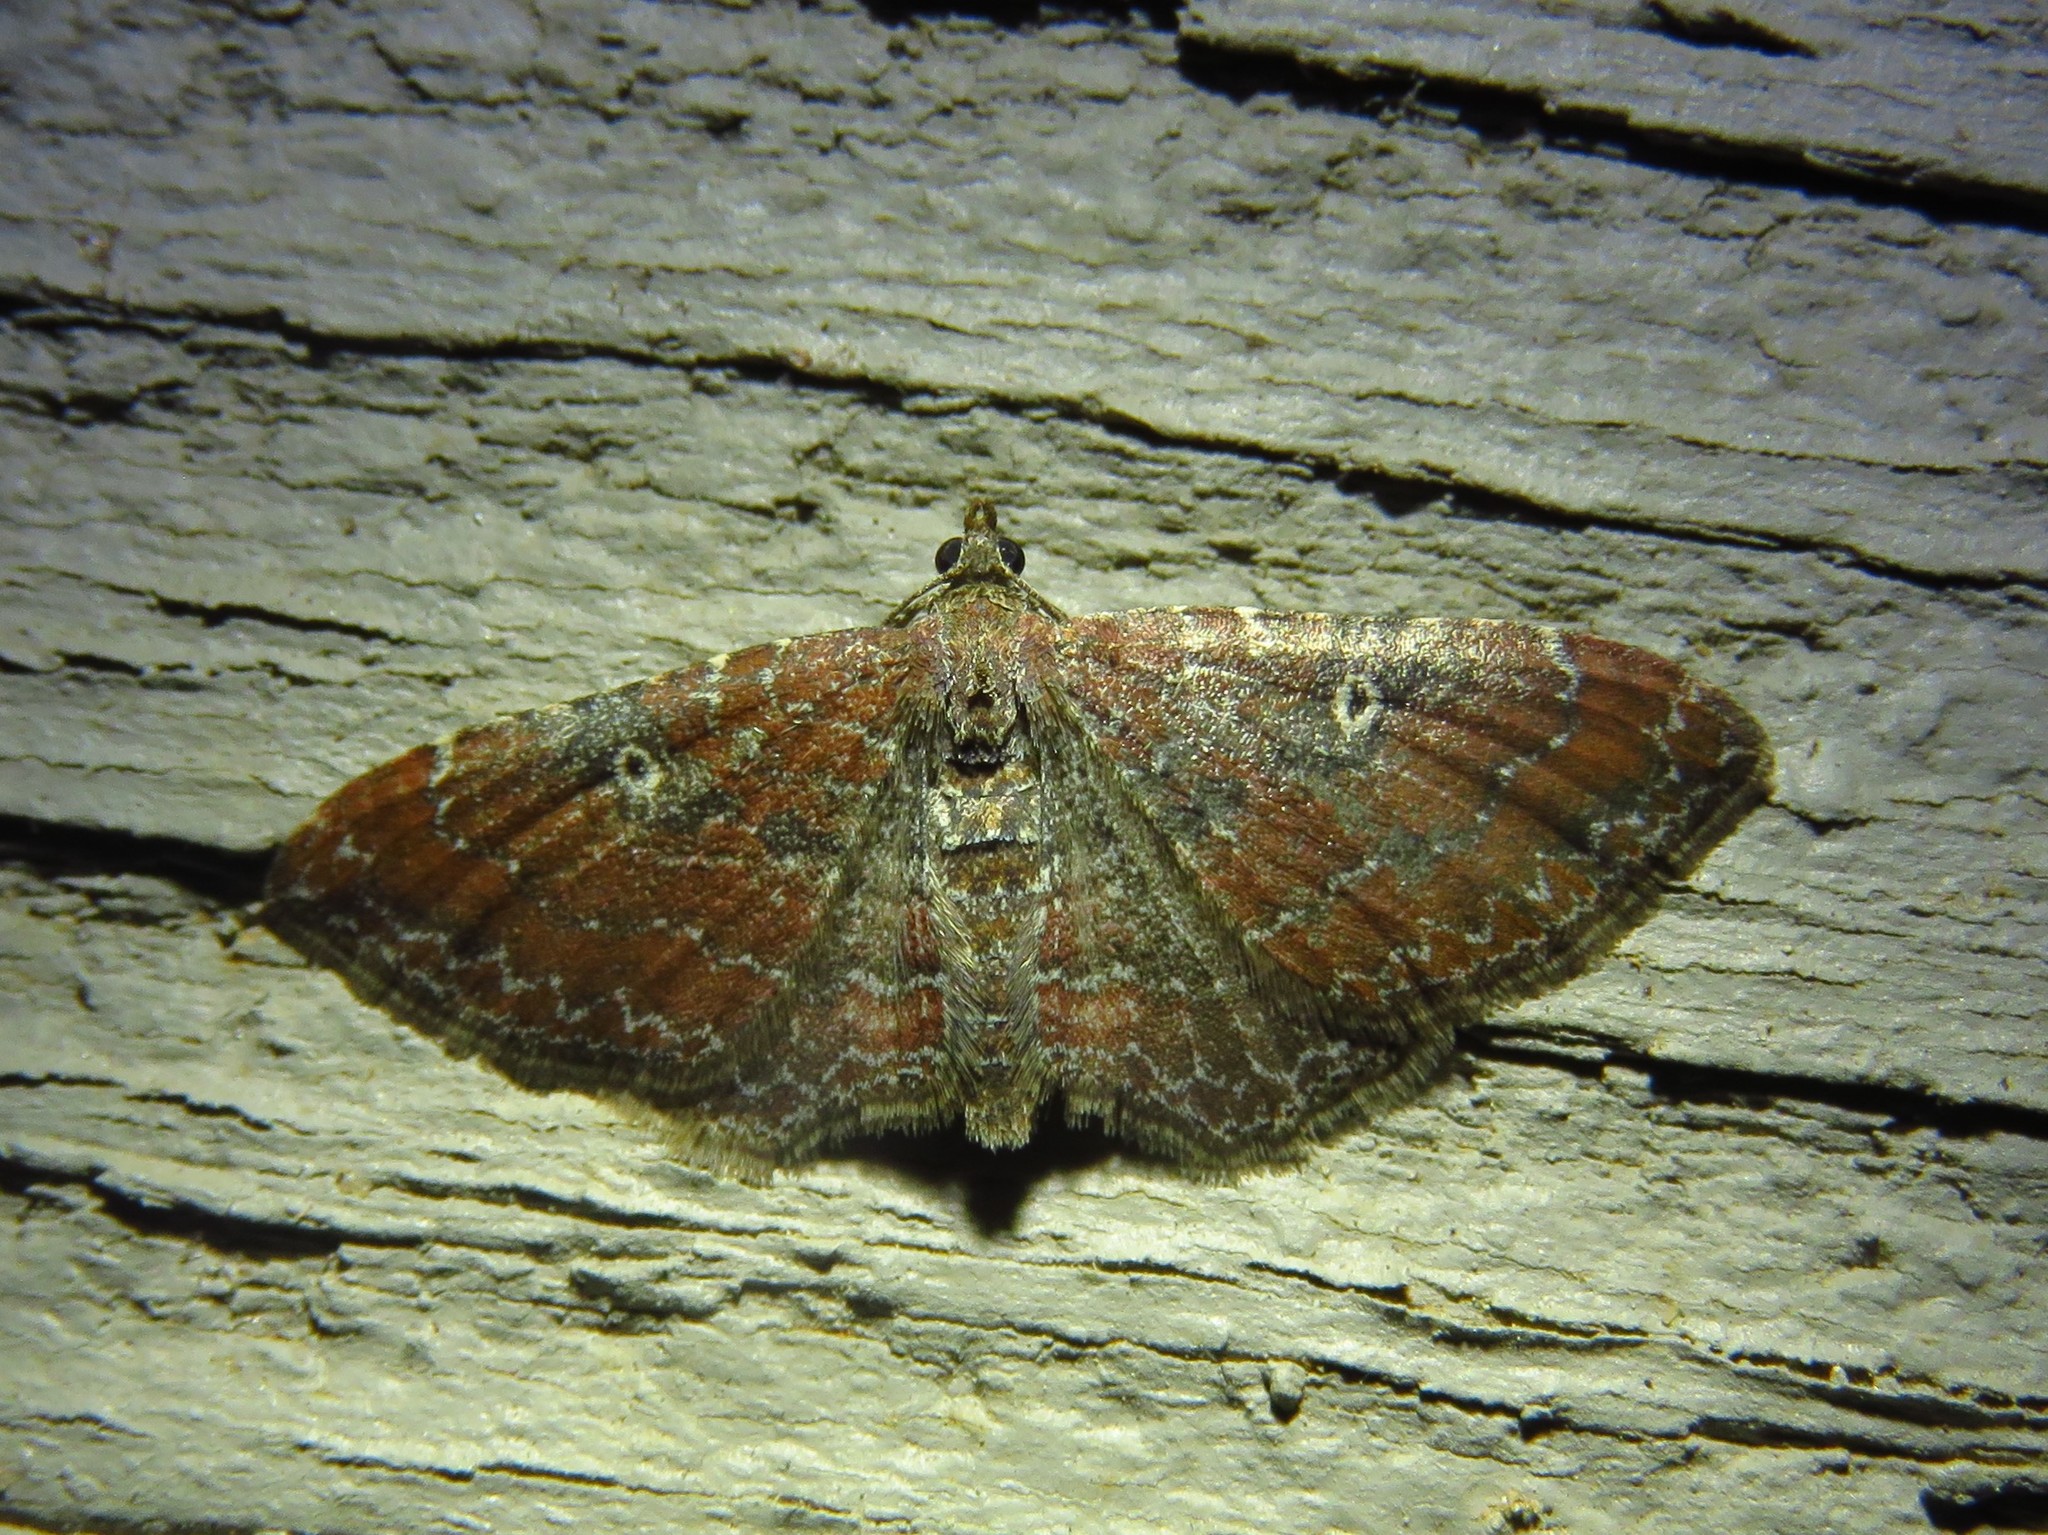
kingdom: Animalia
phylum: Arthropoda
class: Insecta
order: Lepidoptera
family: Geometridae
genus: Orthonama
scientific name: Orthonama obstipata
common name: The gem
